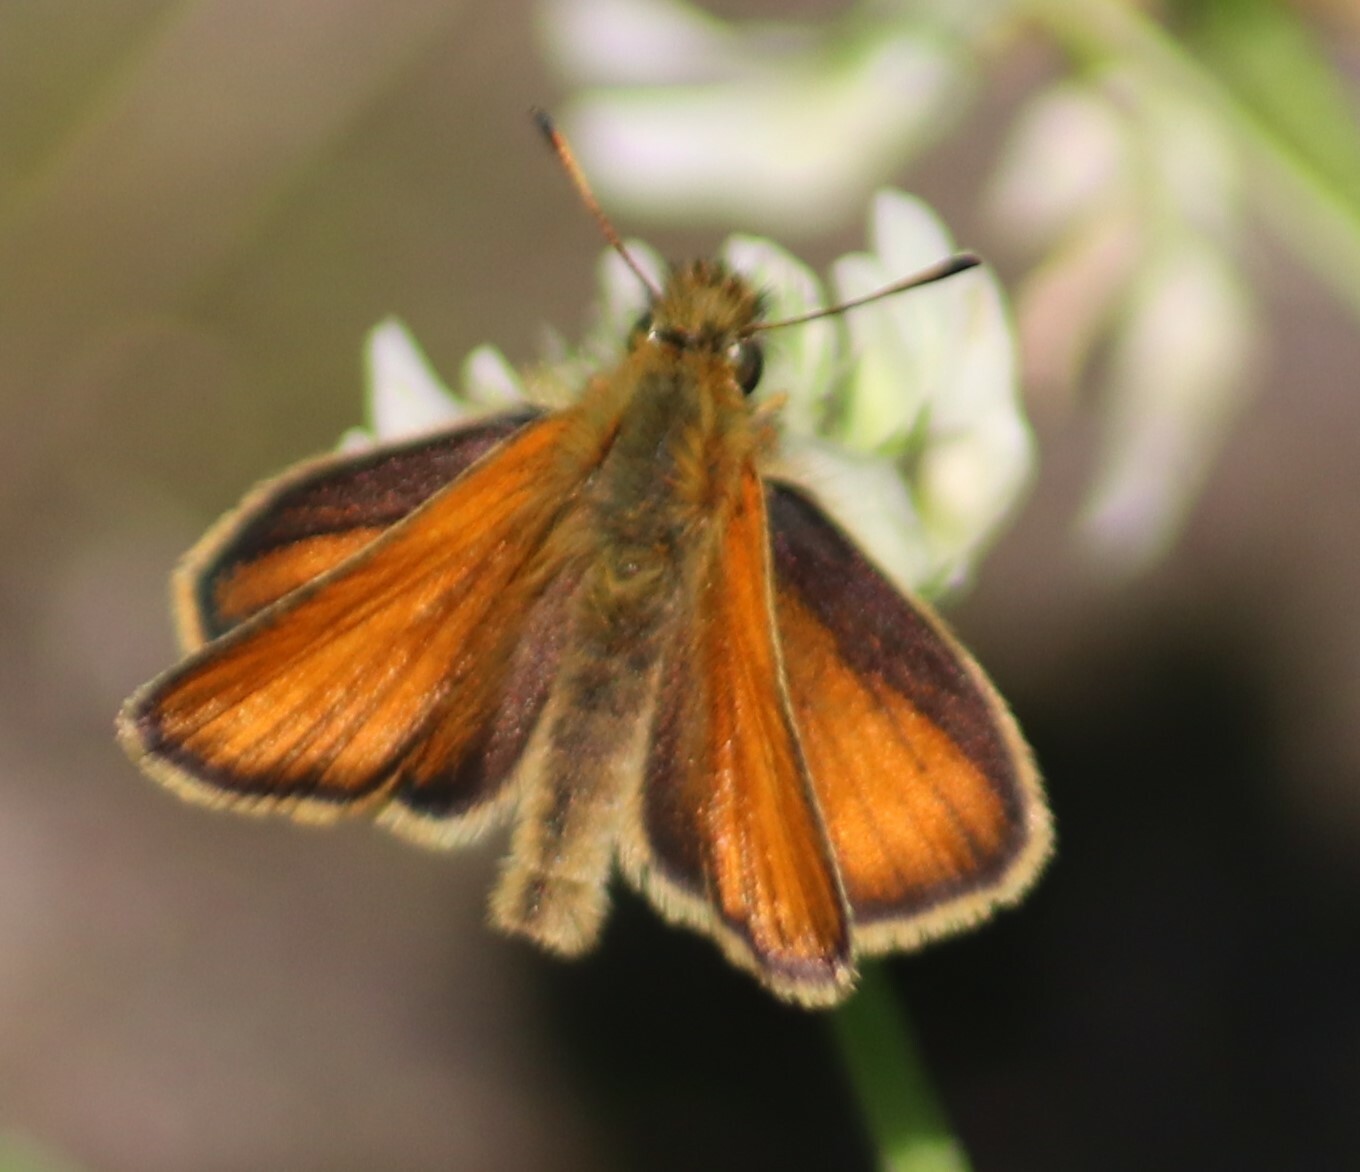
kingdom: Animalia
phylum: Arthropoda
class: Insecta
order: Lepidoptera
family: Hesperiidae
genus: Thymelicus
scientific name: Thymelicus lineola
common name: Essex skipper
